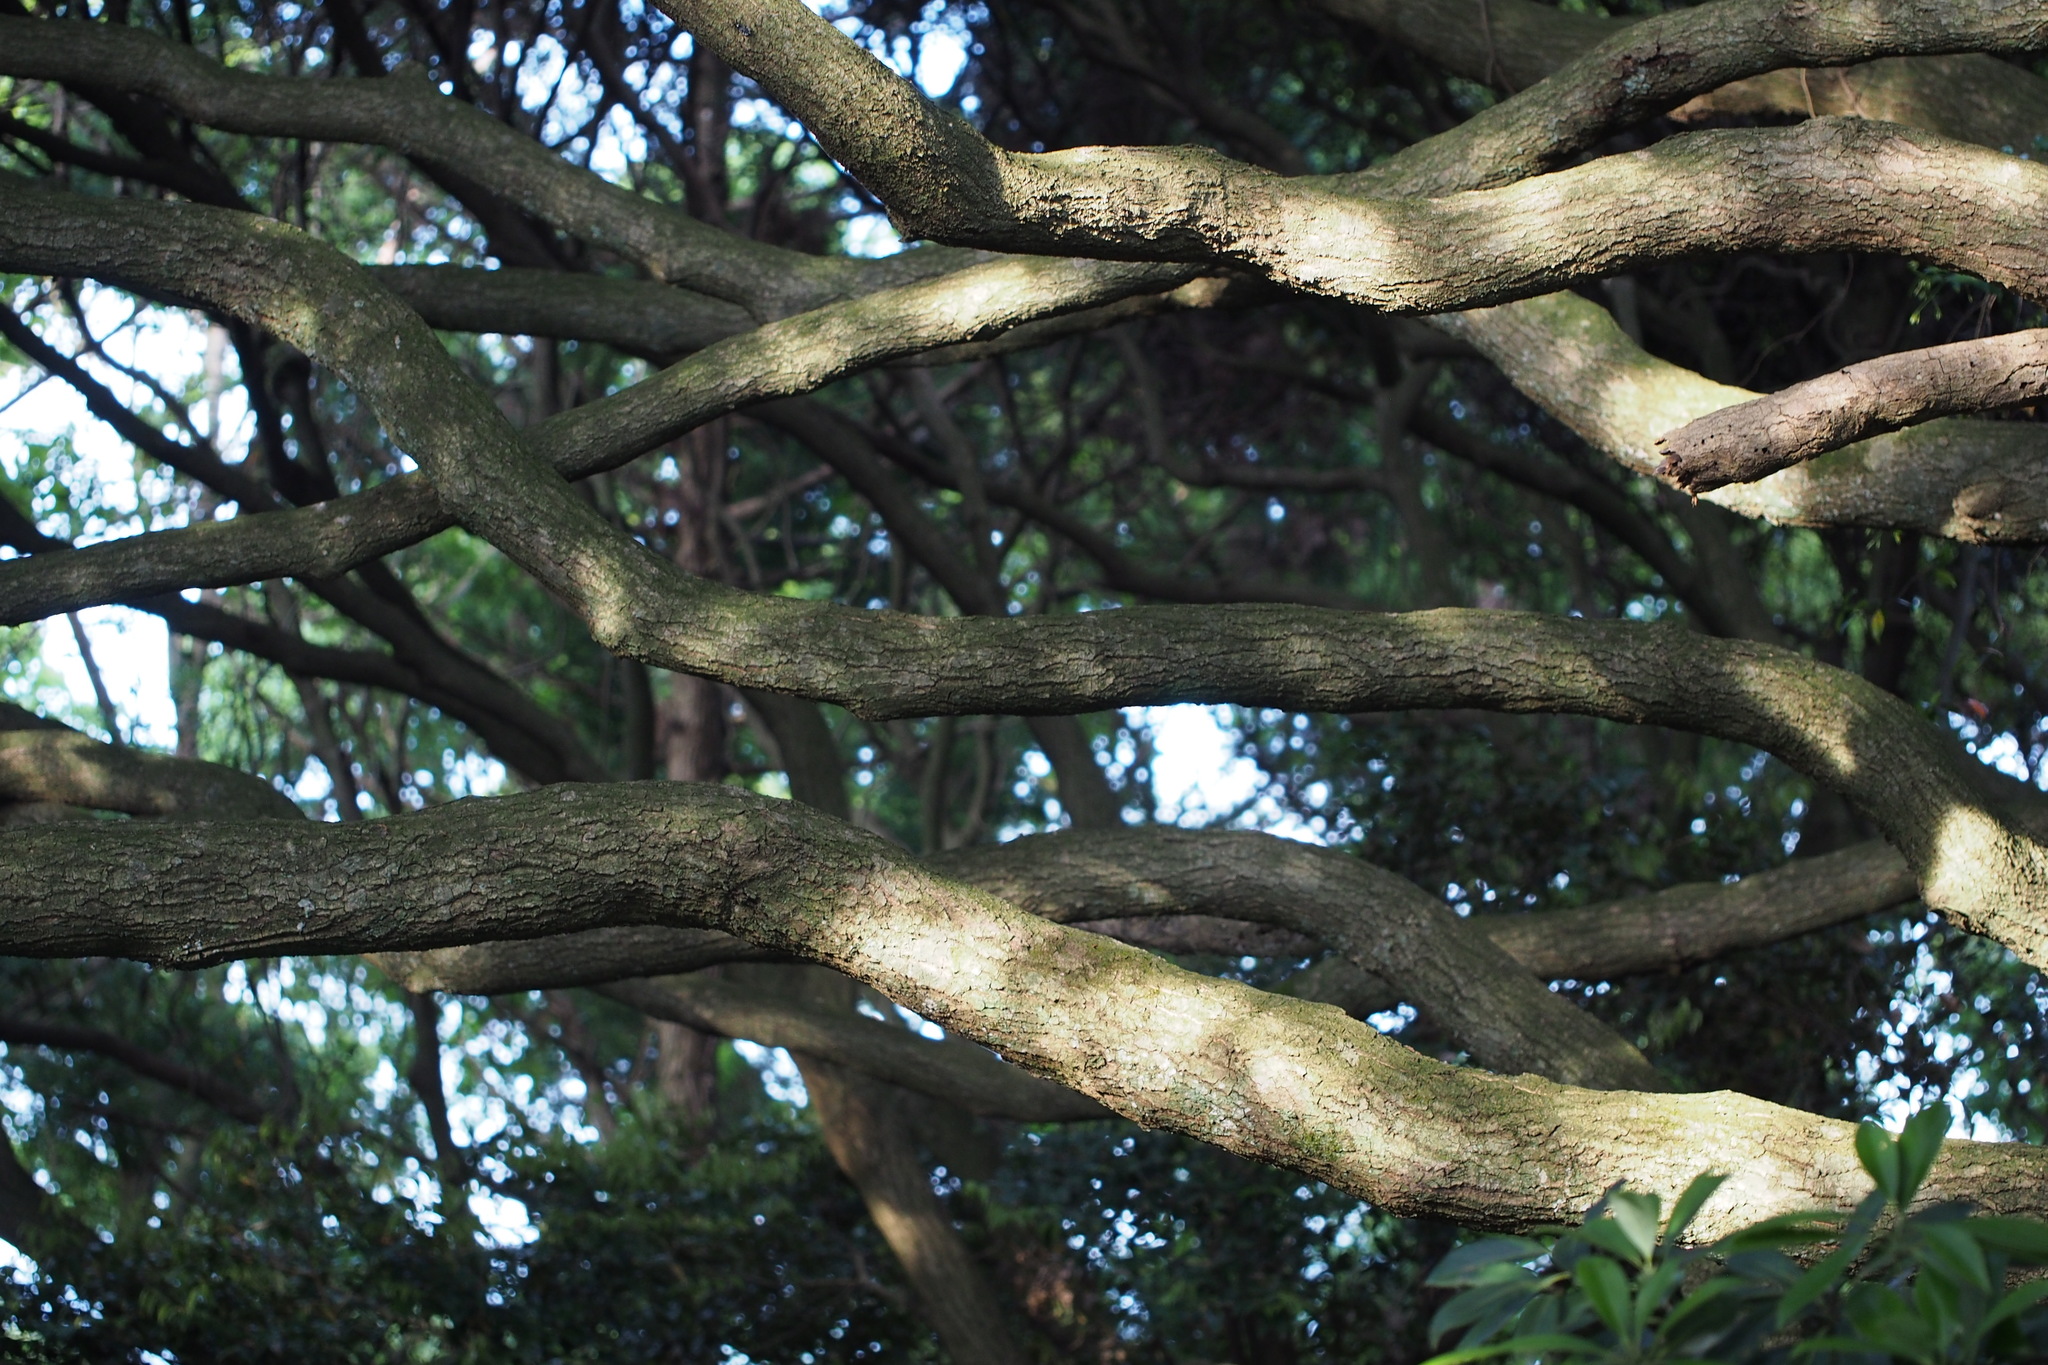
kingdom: Plantae
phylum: Tracheophyta
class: Magnoliopsida
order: Fagales
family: Fagaceae
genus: Castanopsis
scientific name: Castanopsis sieboldii
